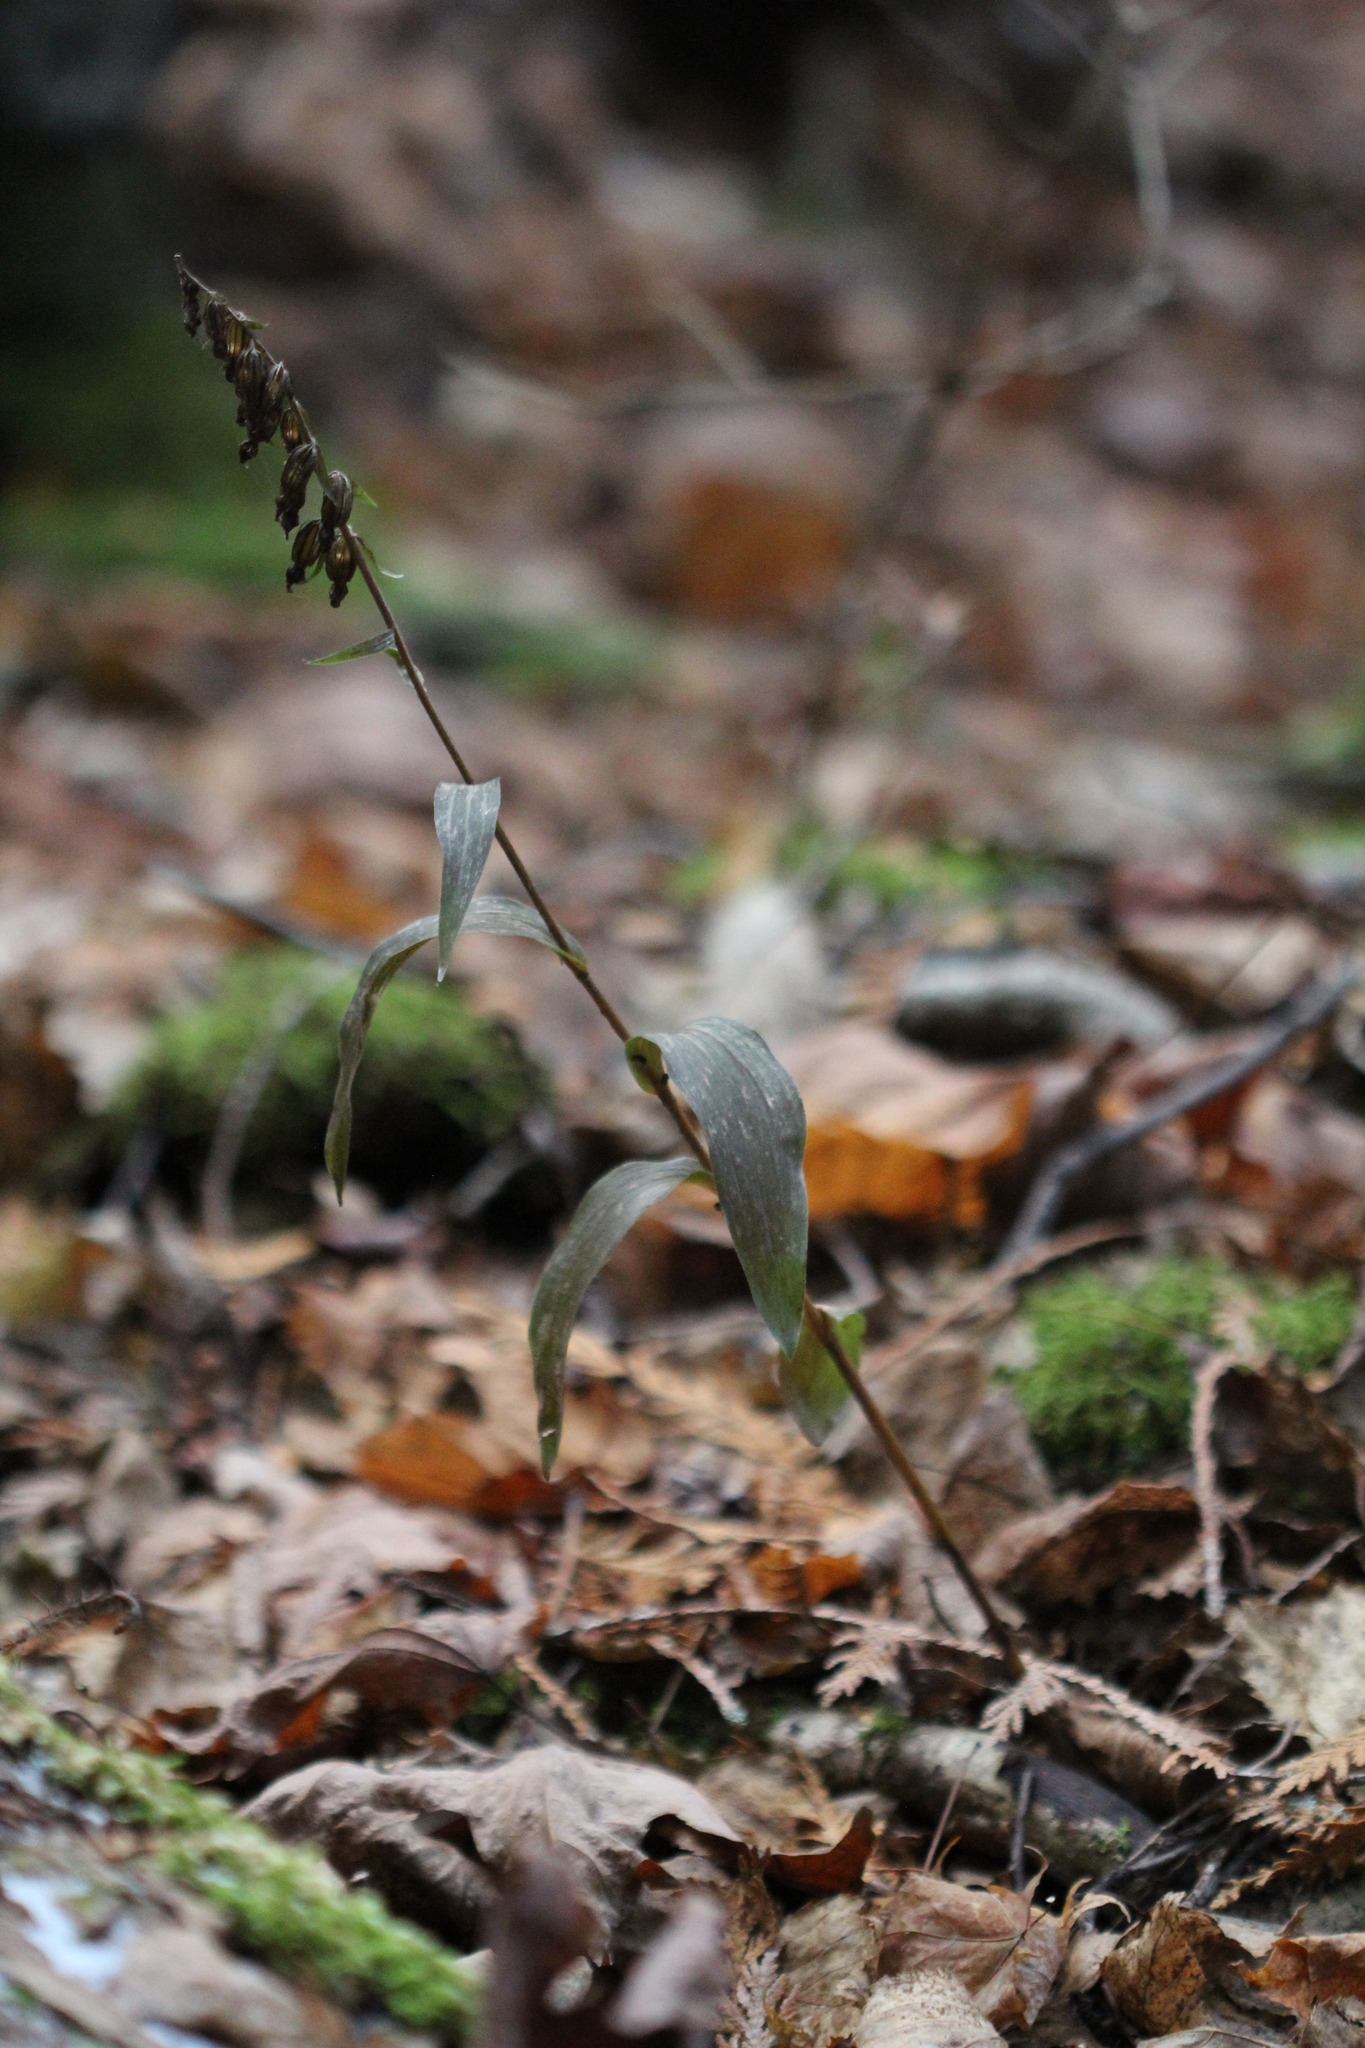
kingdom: Plantae
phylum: Tracheophyta
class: Liliopsida
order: Asparagales
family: Orchidaceae
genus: Epipactis
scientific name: Epipactis helleborine
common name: Broad-leaved helleborine
